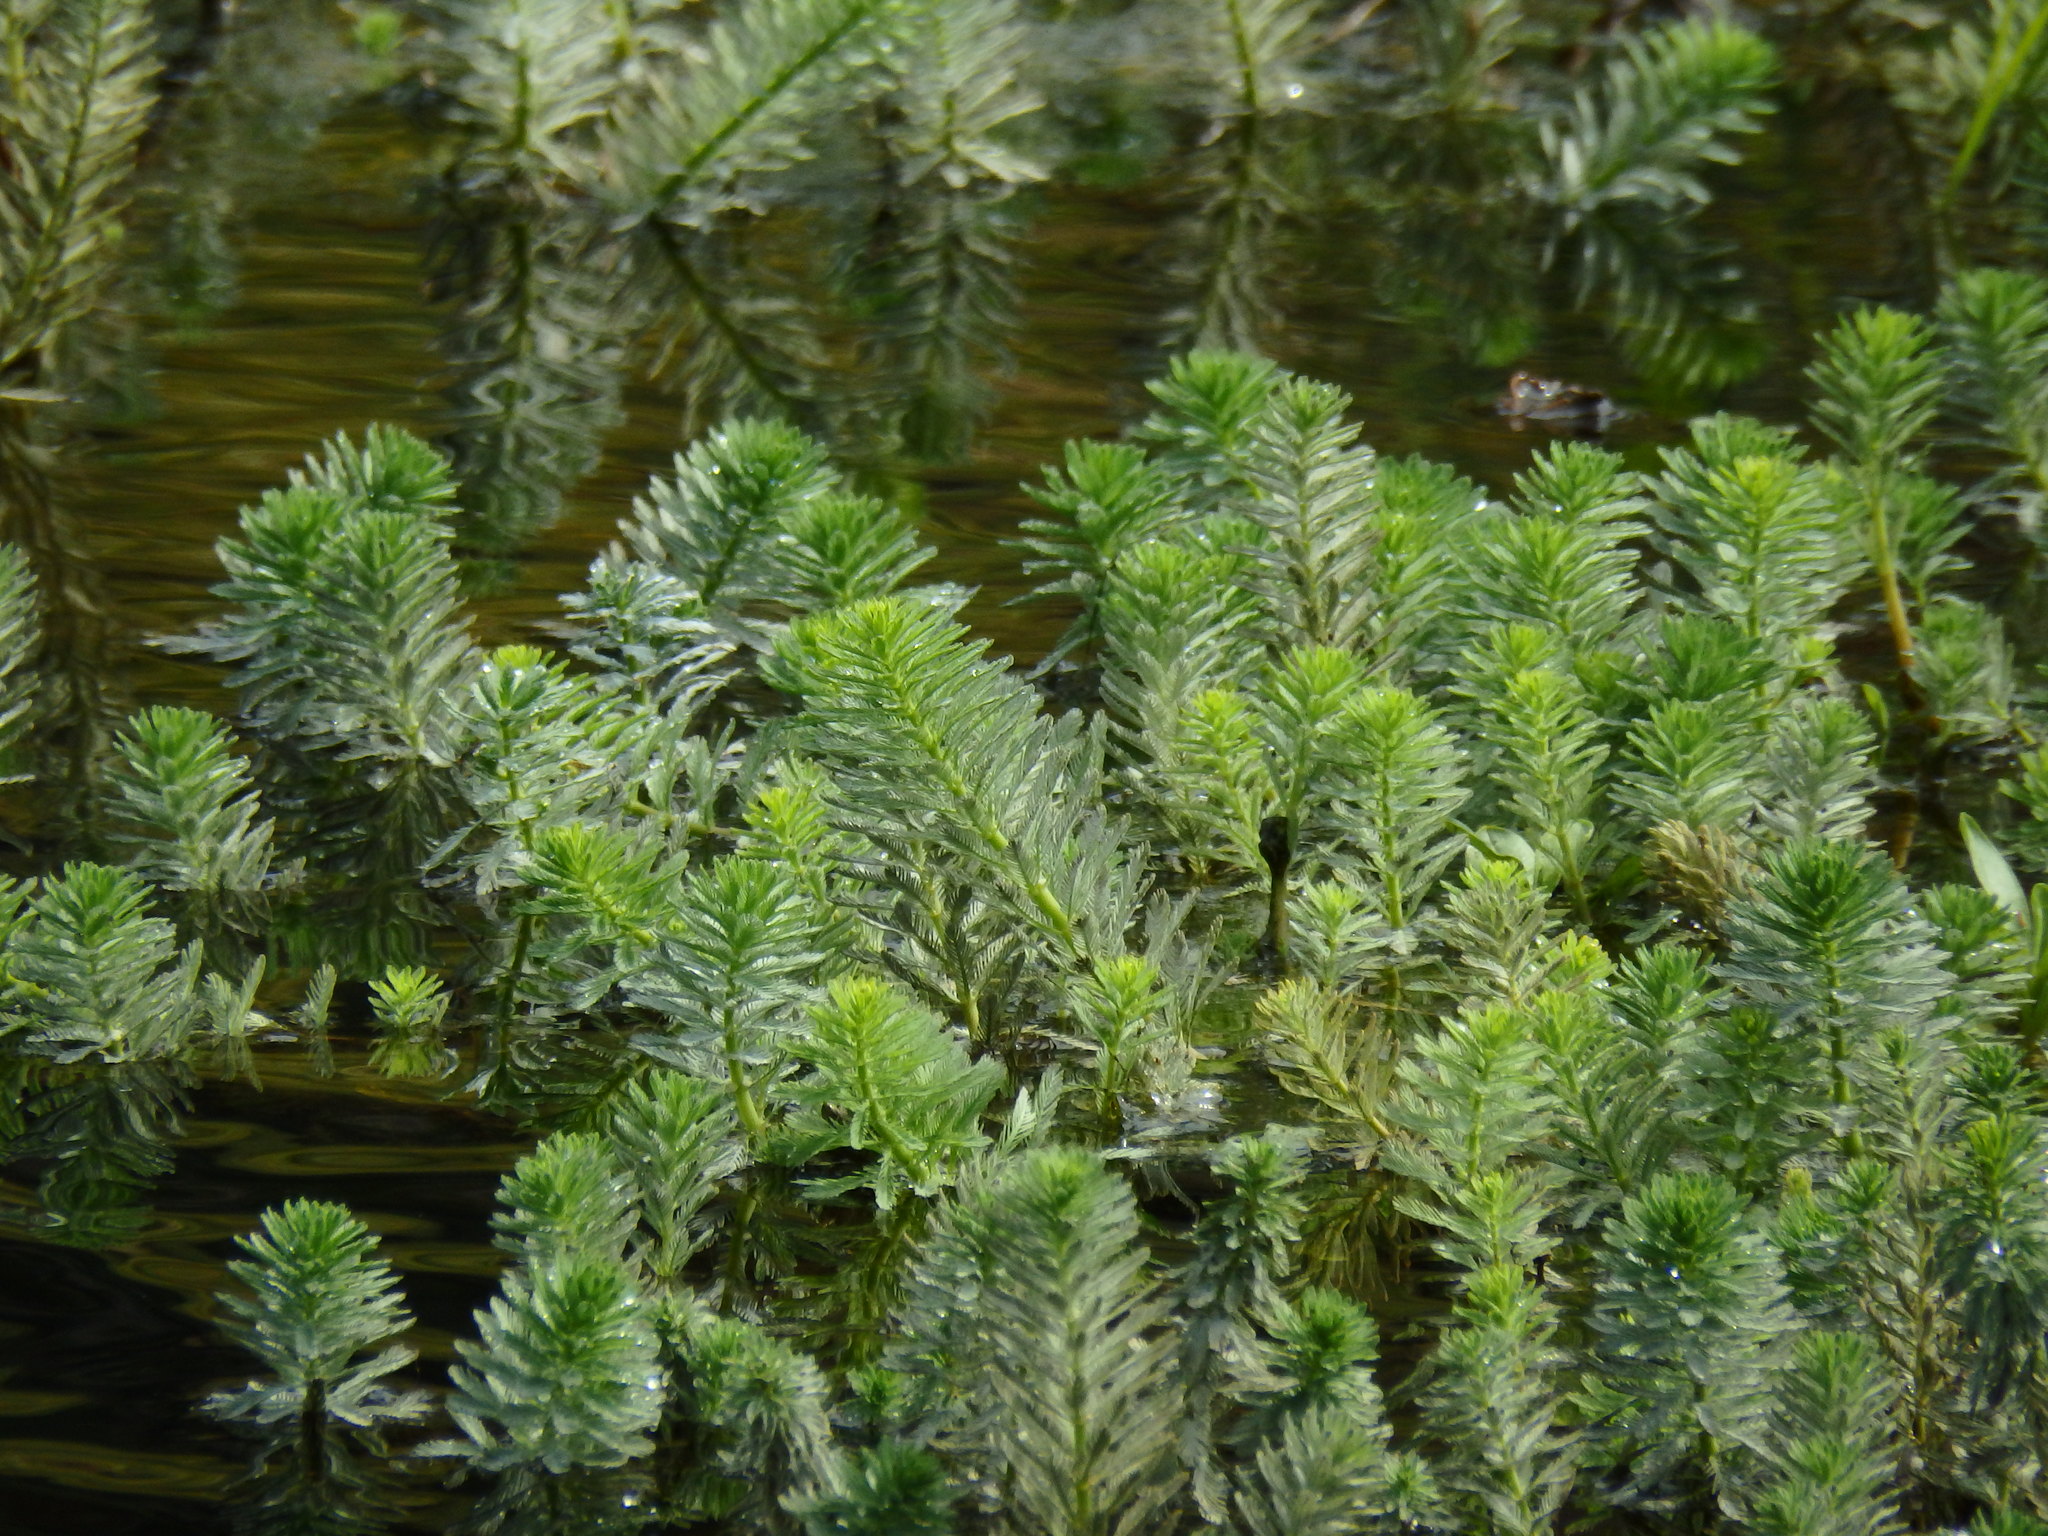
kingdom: Plantae
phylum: Tracheophyta
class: Magnoliopsida
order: Saxifragales
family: Haloragaceae
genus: Myriophyllum
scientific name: Myriophyllum aquaticum
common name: Parrot's feather
